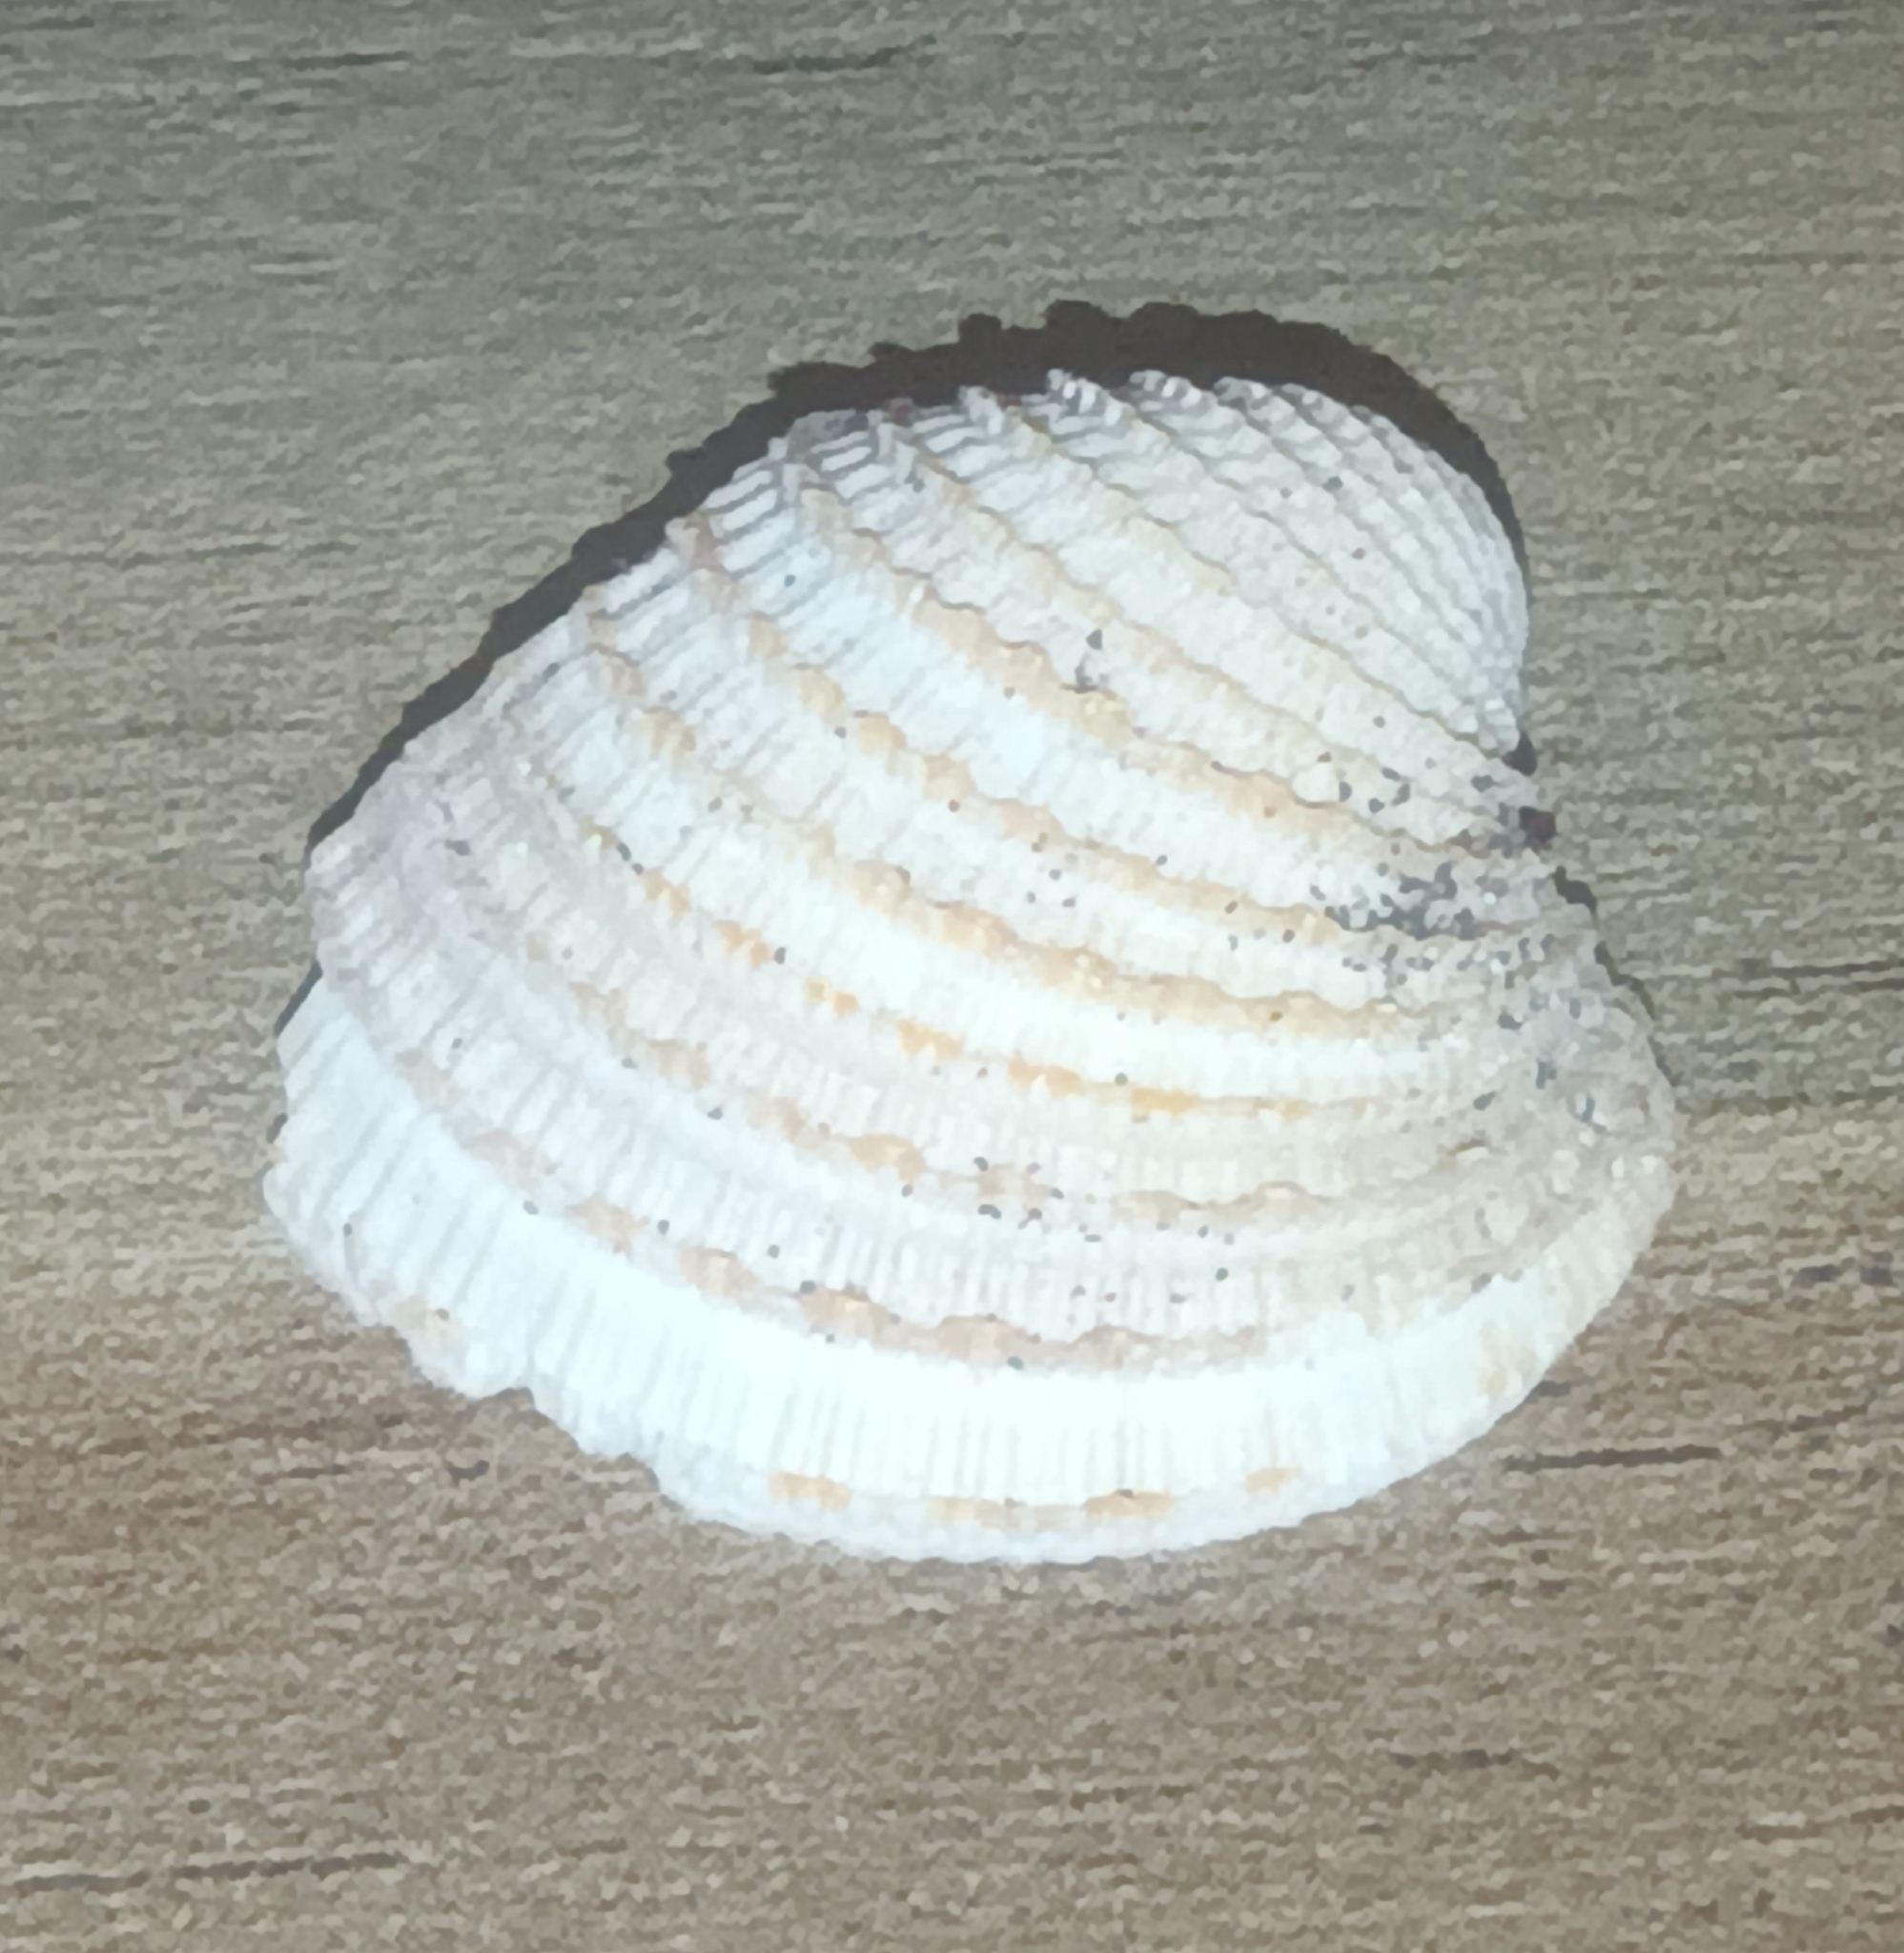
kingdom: Animalia
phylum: Mollusca
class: Bivalvia
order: Venerida
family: Veneridae
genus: Chionopsis
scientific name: Chionopsis amathusia
